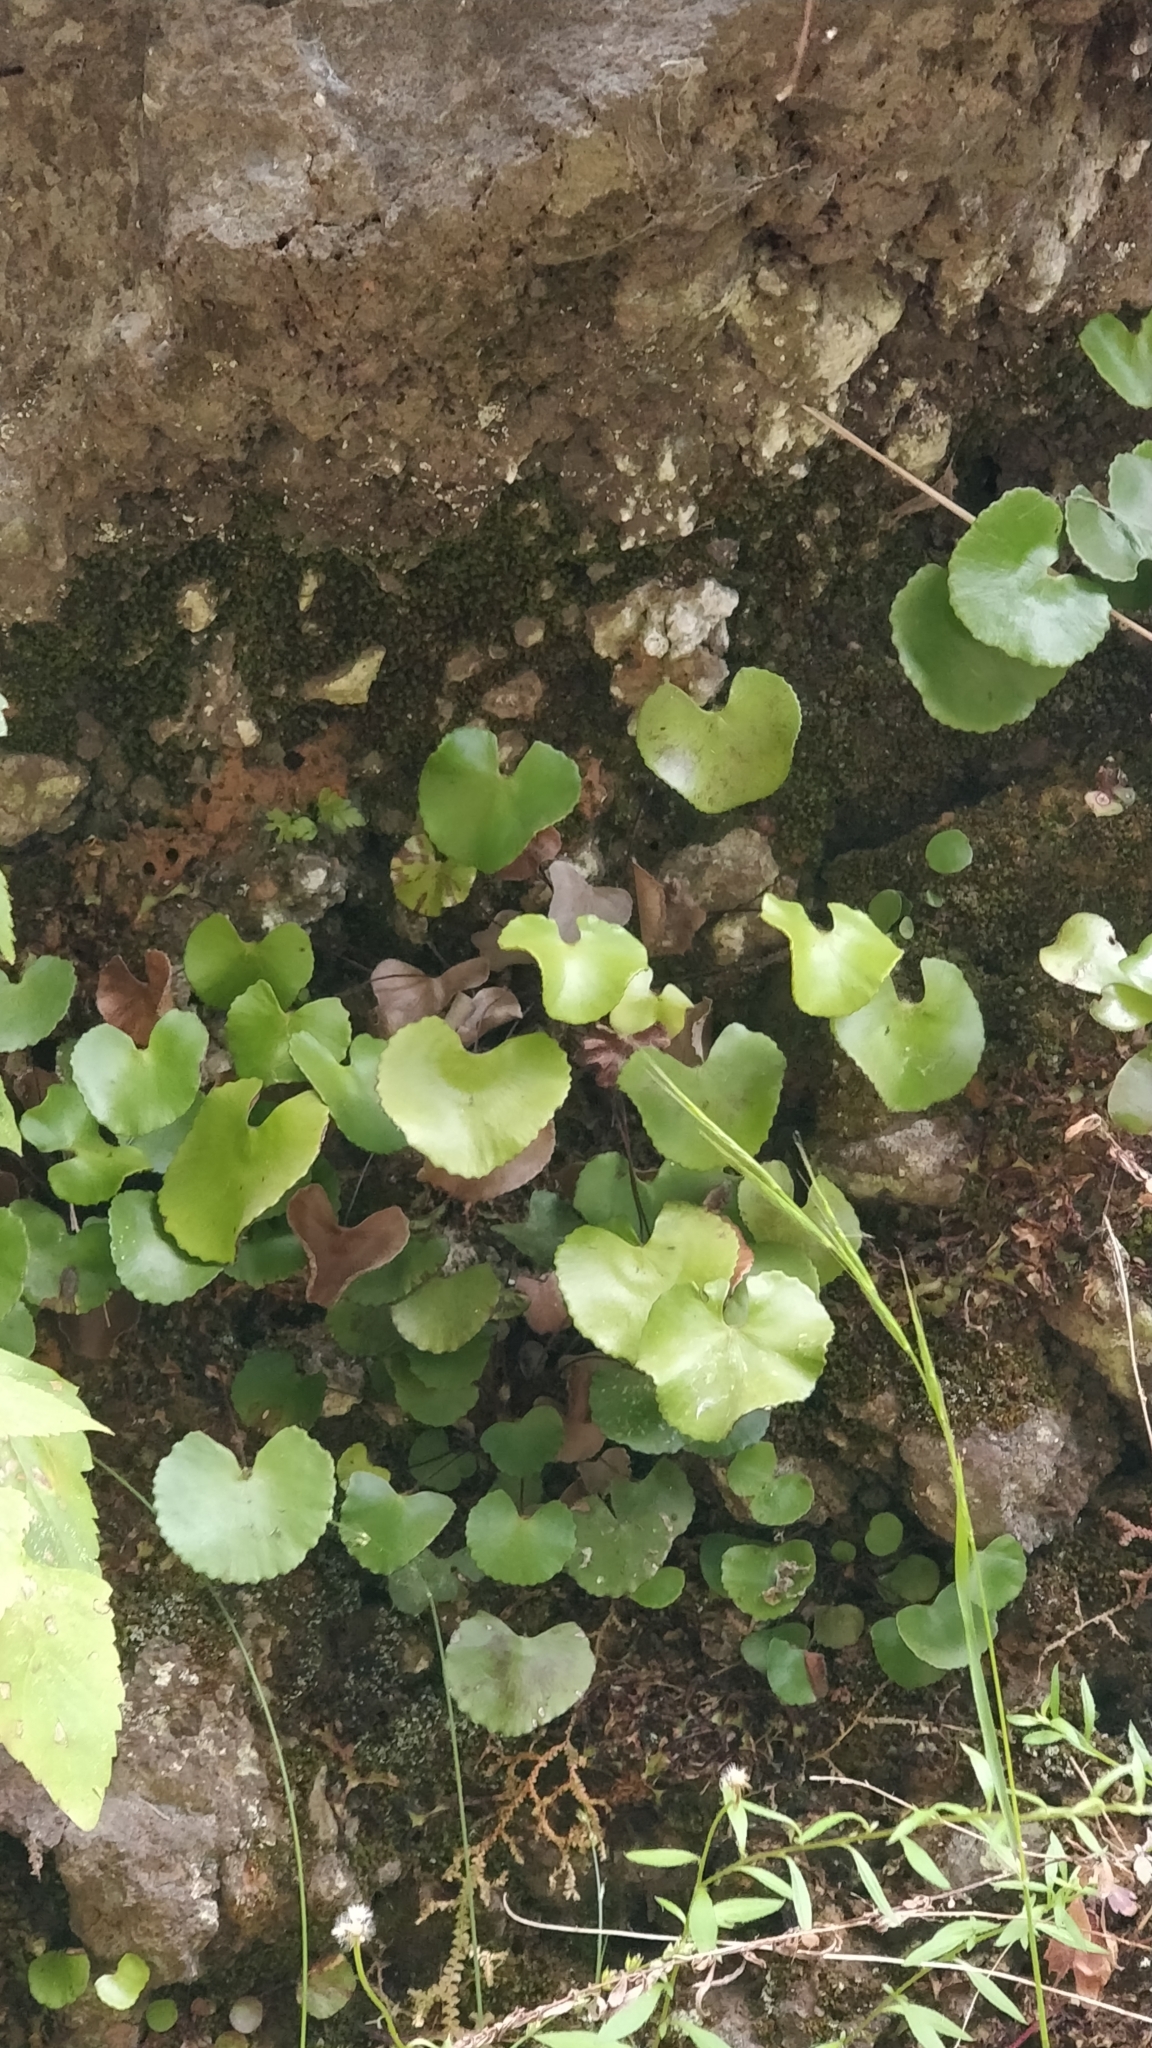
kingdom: Plantae
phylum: Tracheophyta
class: Polypodiopsida
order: Polypodiales
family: Pteridaceae
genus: Adiantum
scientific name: Adiantum reniforme
